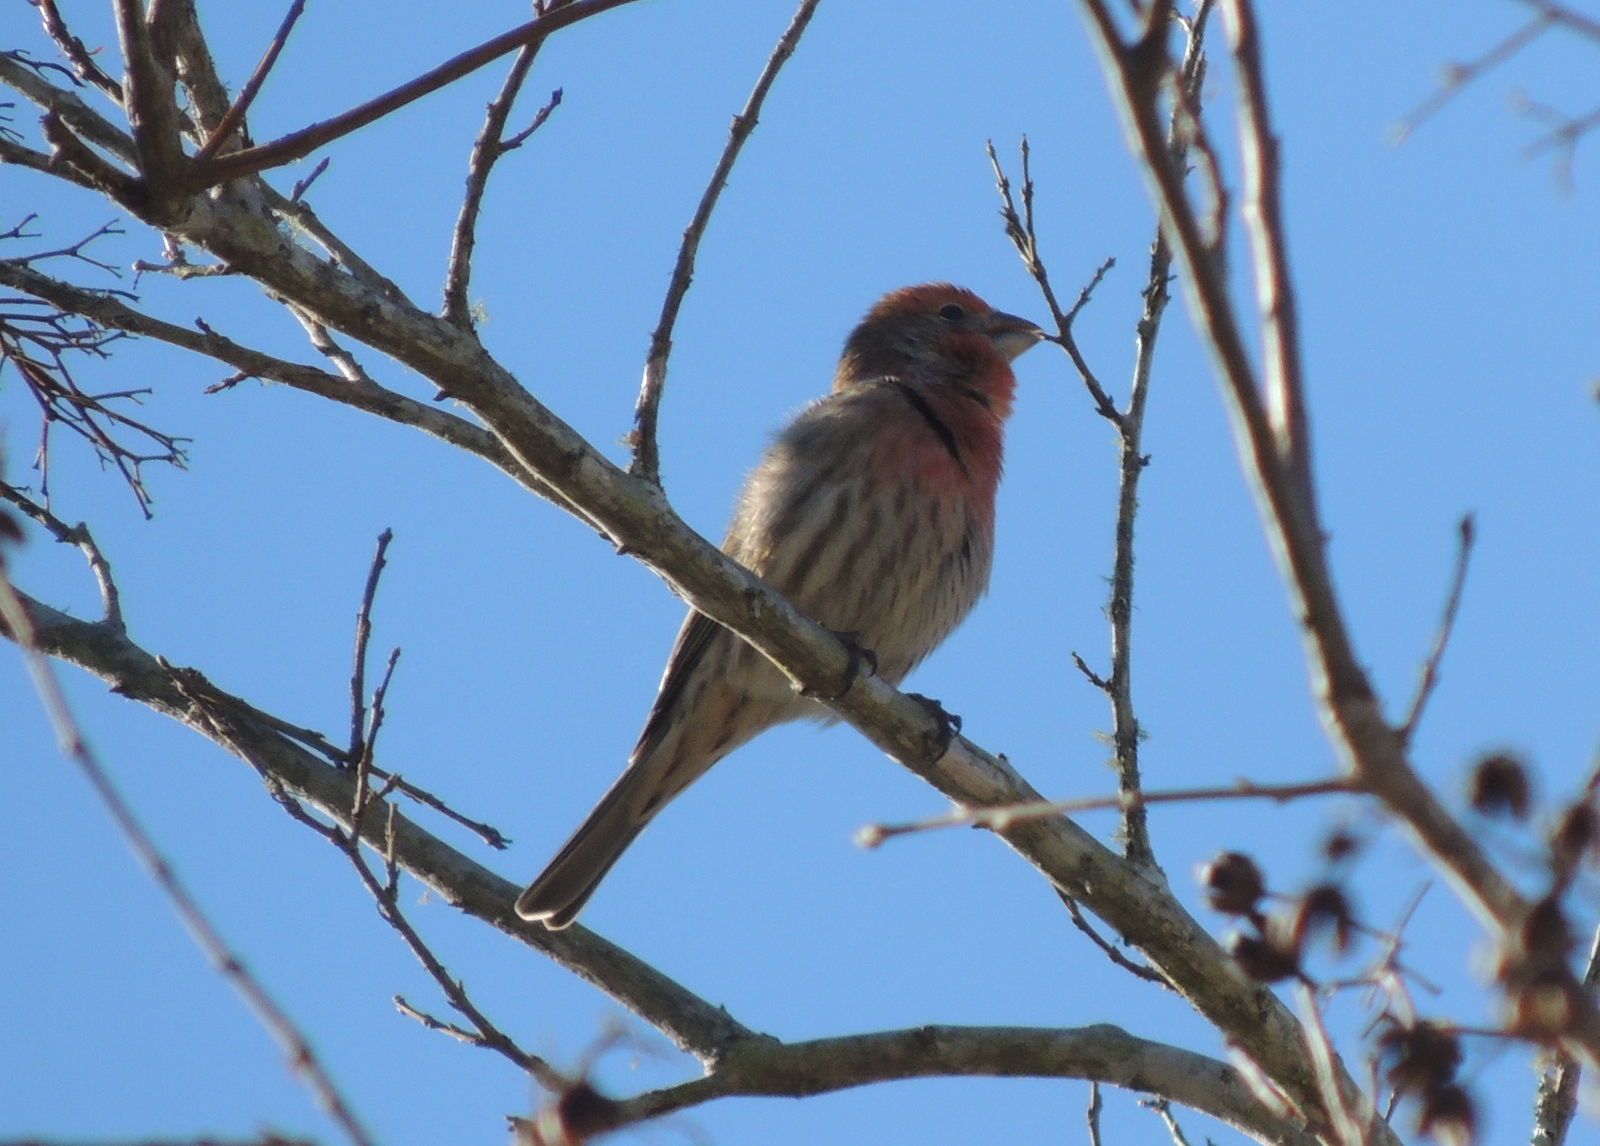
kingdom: Animalia
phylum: Chordata
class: Aves
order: Passeriformes
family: Fringillidae
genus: Haemorhous
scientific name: Haemorhous mexicanus
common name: House finch
